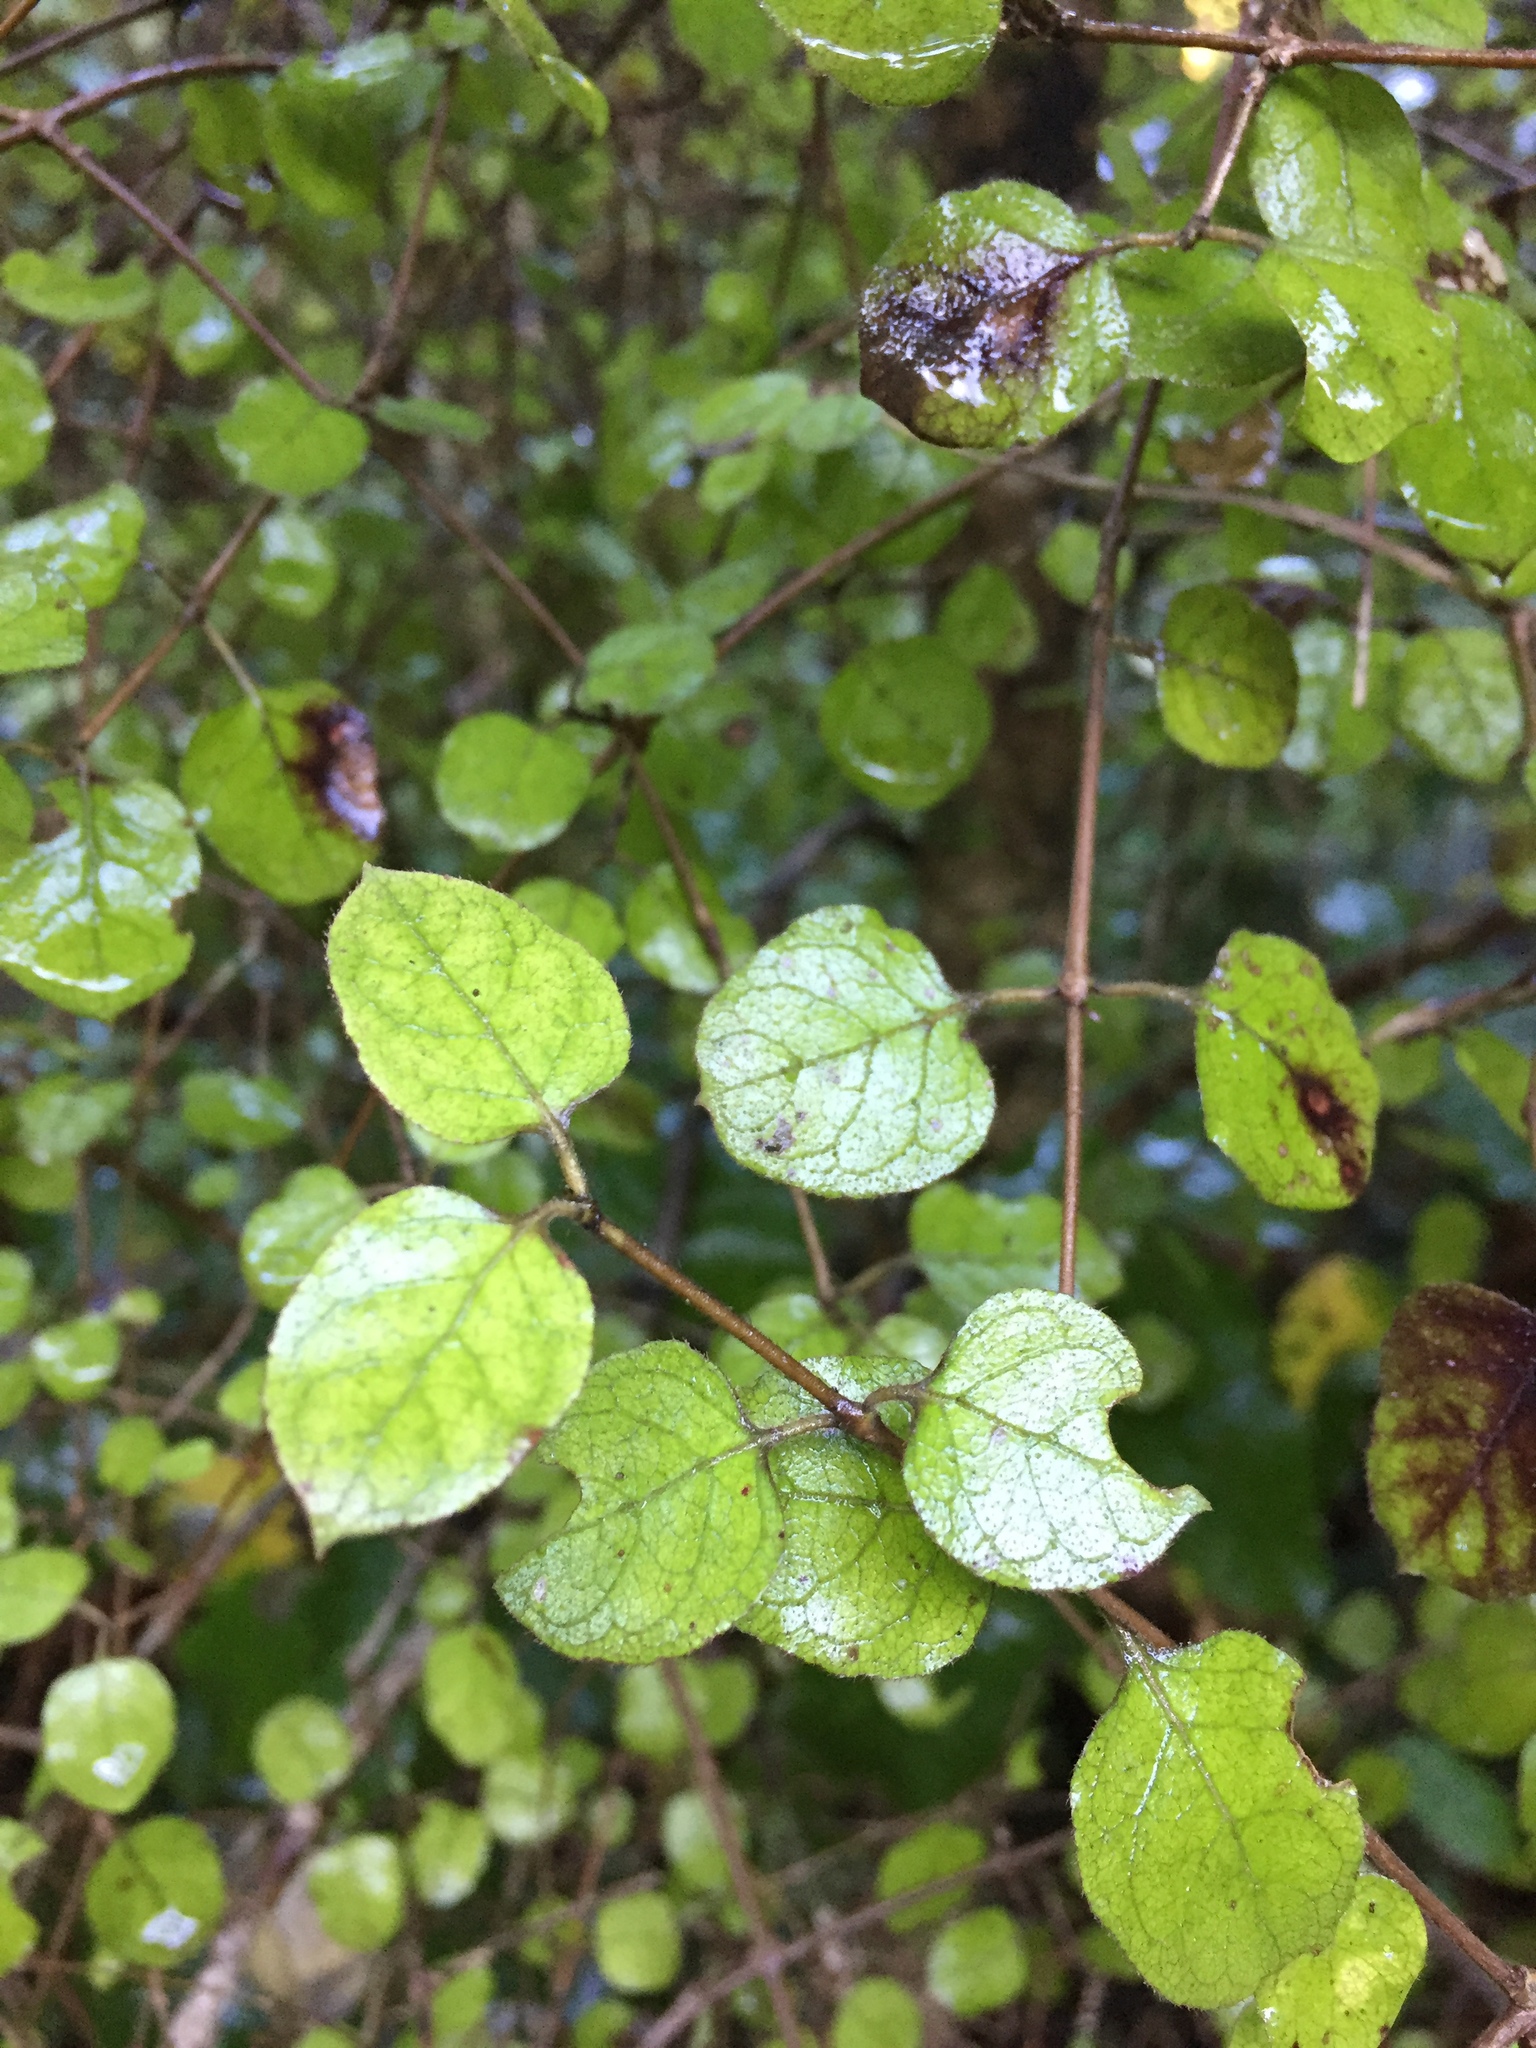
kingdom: Plantae
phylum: Tracheophyta
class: Magnoliopsida
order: Gentianales
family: Rubiaceae
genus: Coprosma
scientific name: Coprosma rotundifolia
